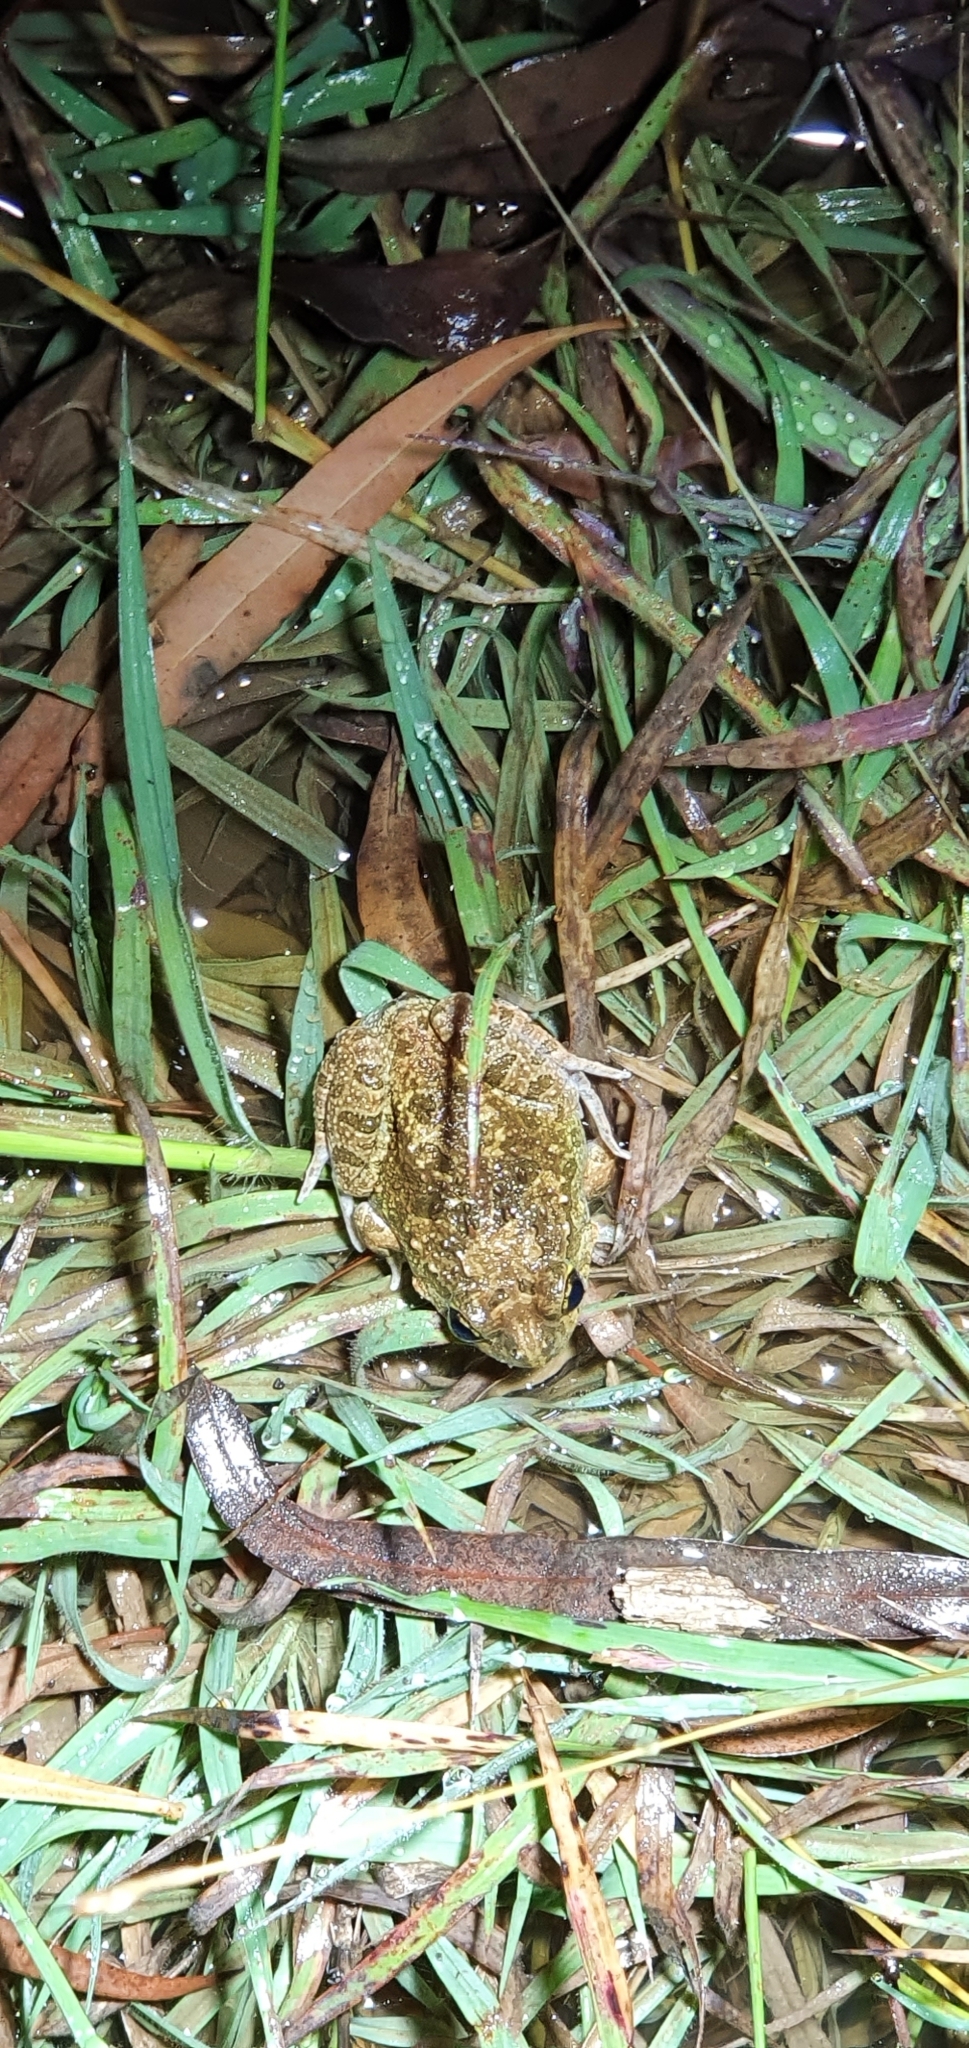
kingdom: Animalia
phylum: Chordata
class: Amphibia
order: Anura
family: Limnodynastidae
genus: Platyplectrum
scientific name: Platyplectrum ornatum
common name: Ornate burrowing frog
